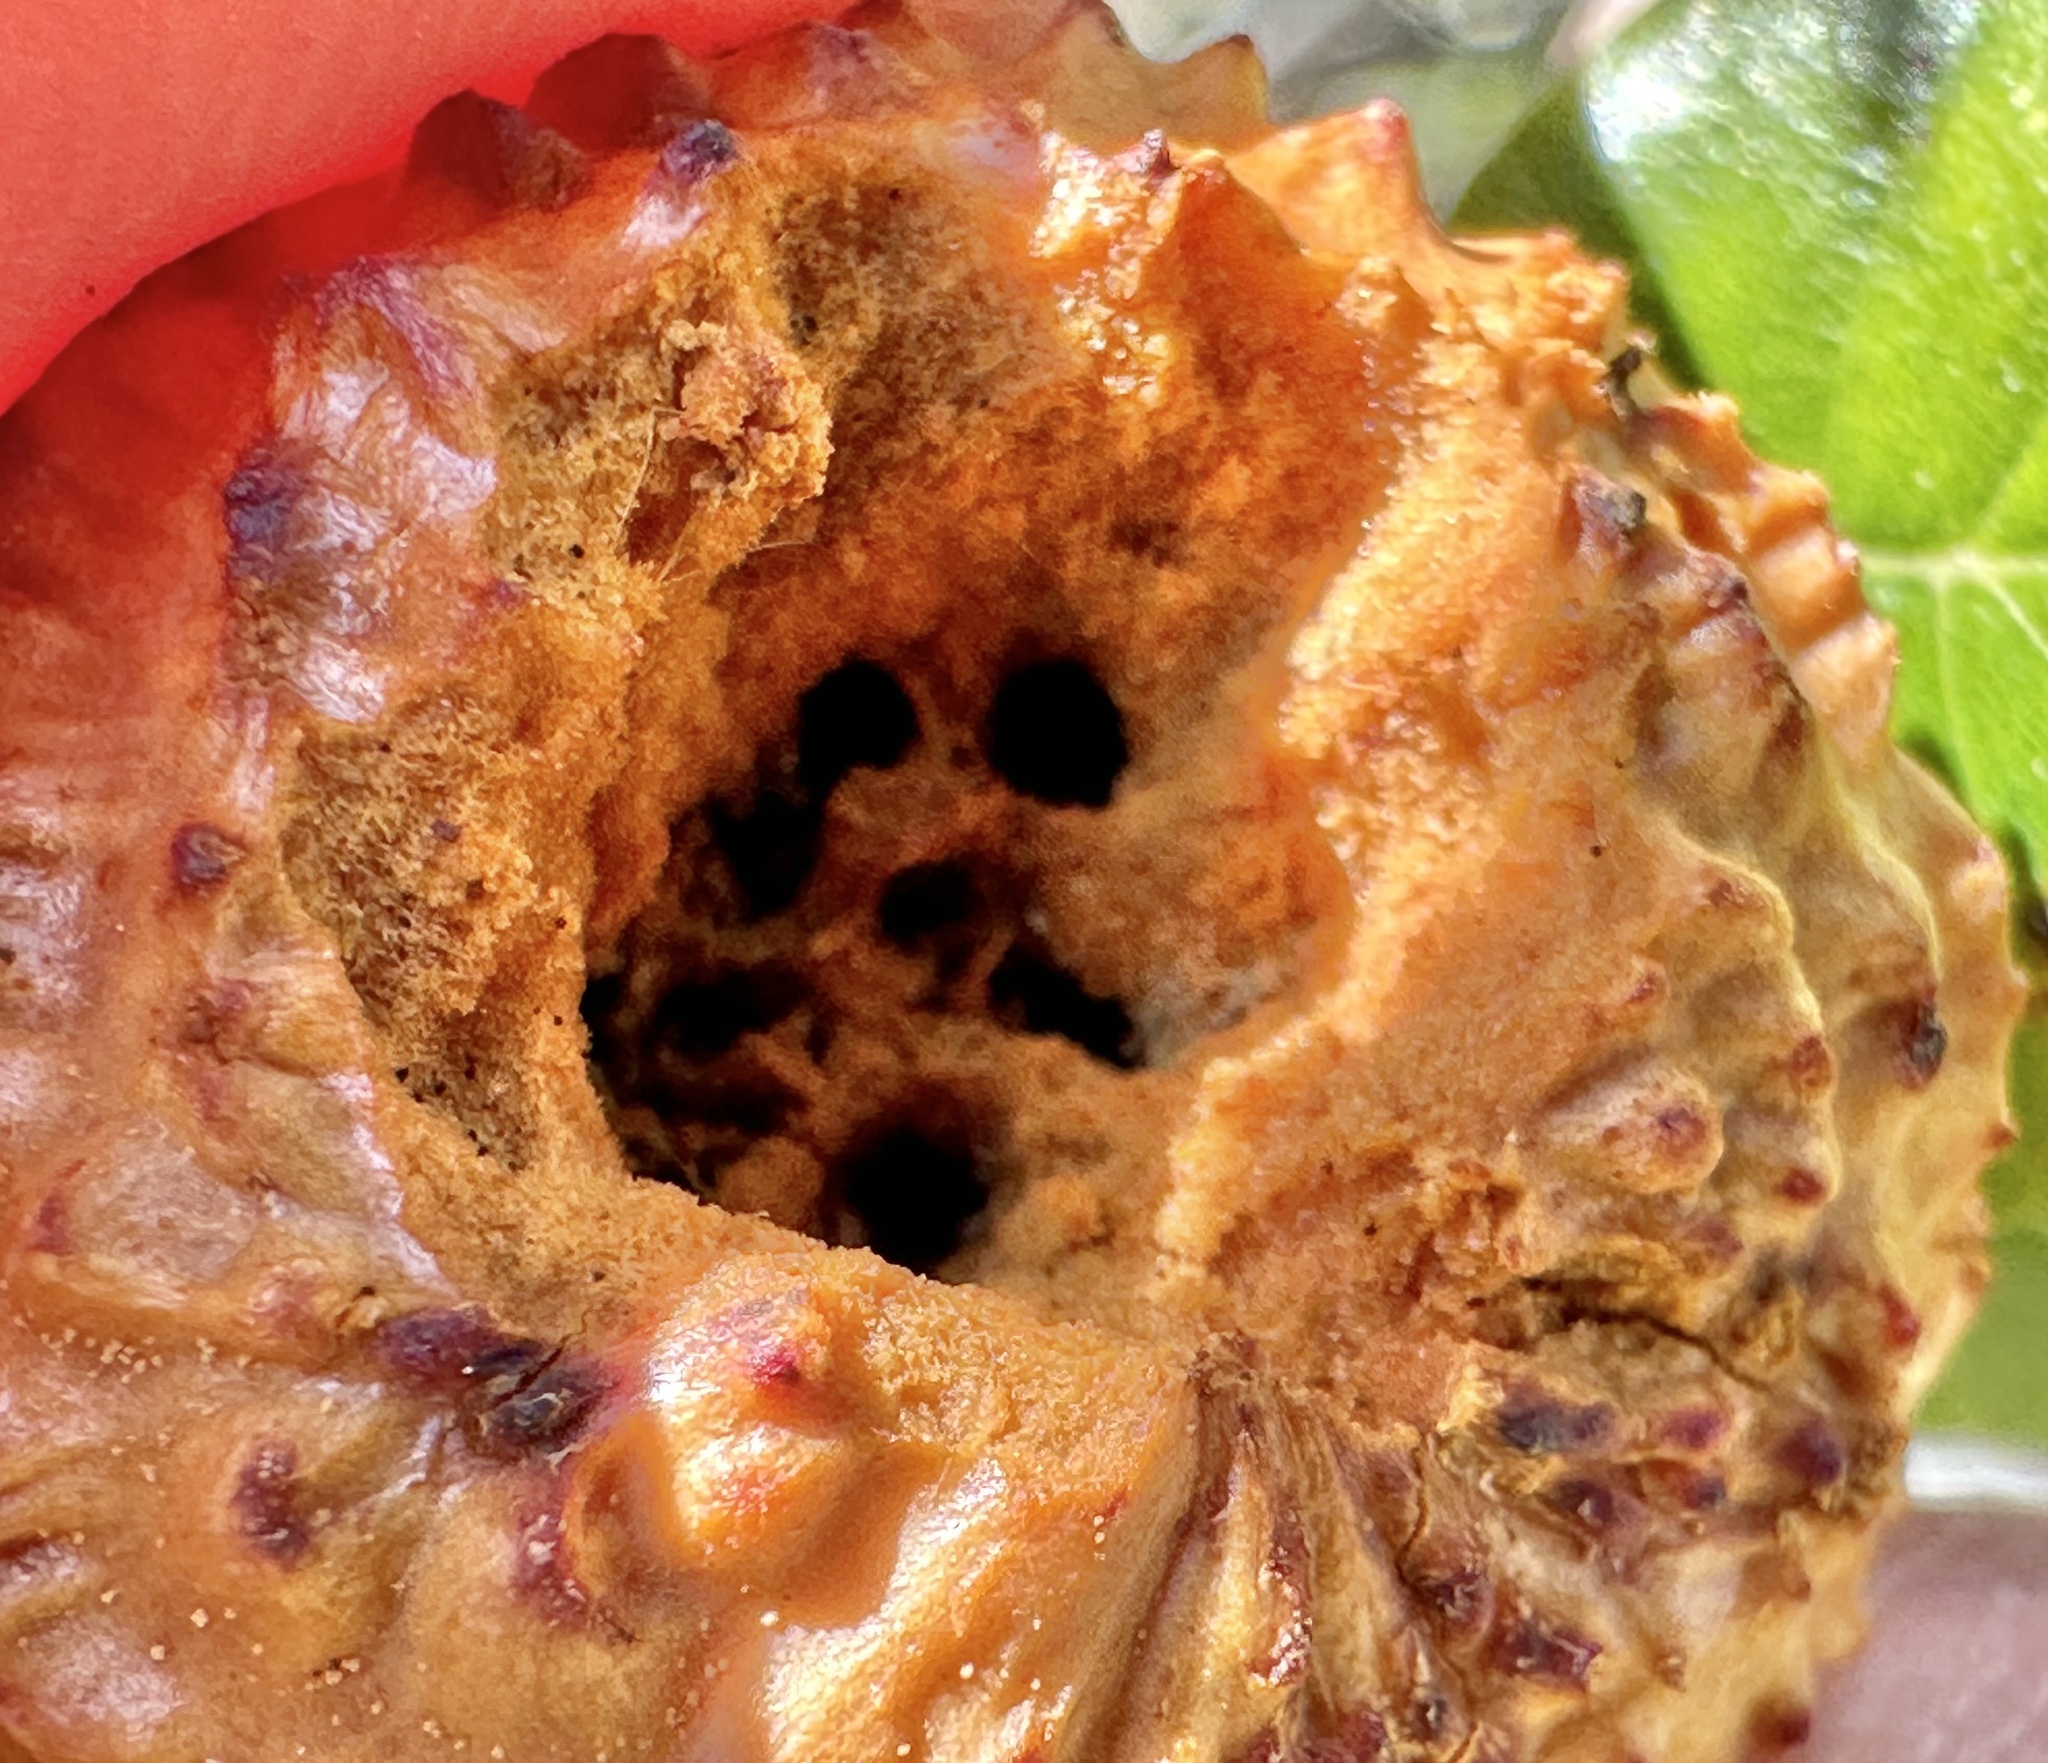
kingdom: Animalia
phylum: Arthropoda
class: Insecta
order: Hymenoptera
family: Cynipidae
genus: Amphibolips
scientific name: Amphibolips quercuspomiformis
